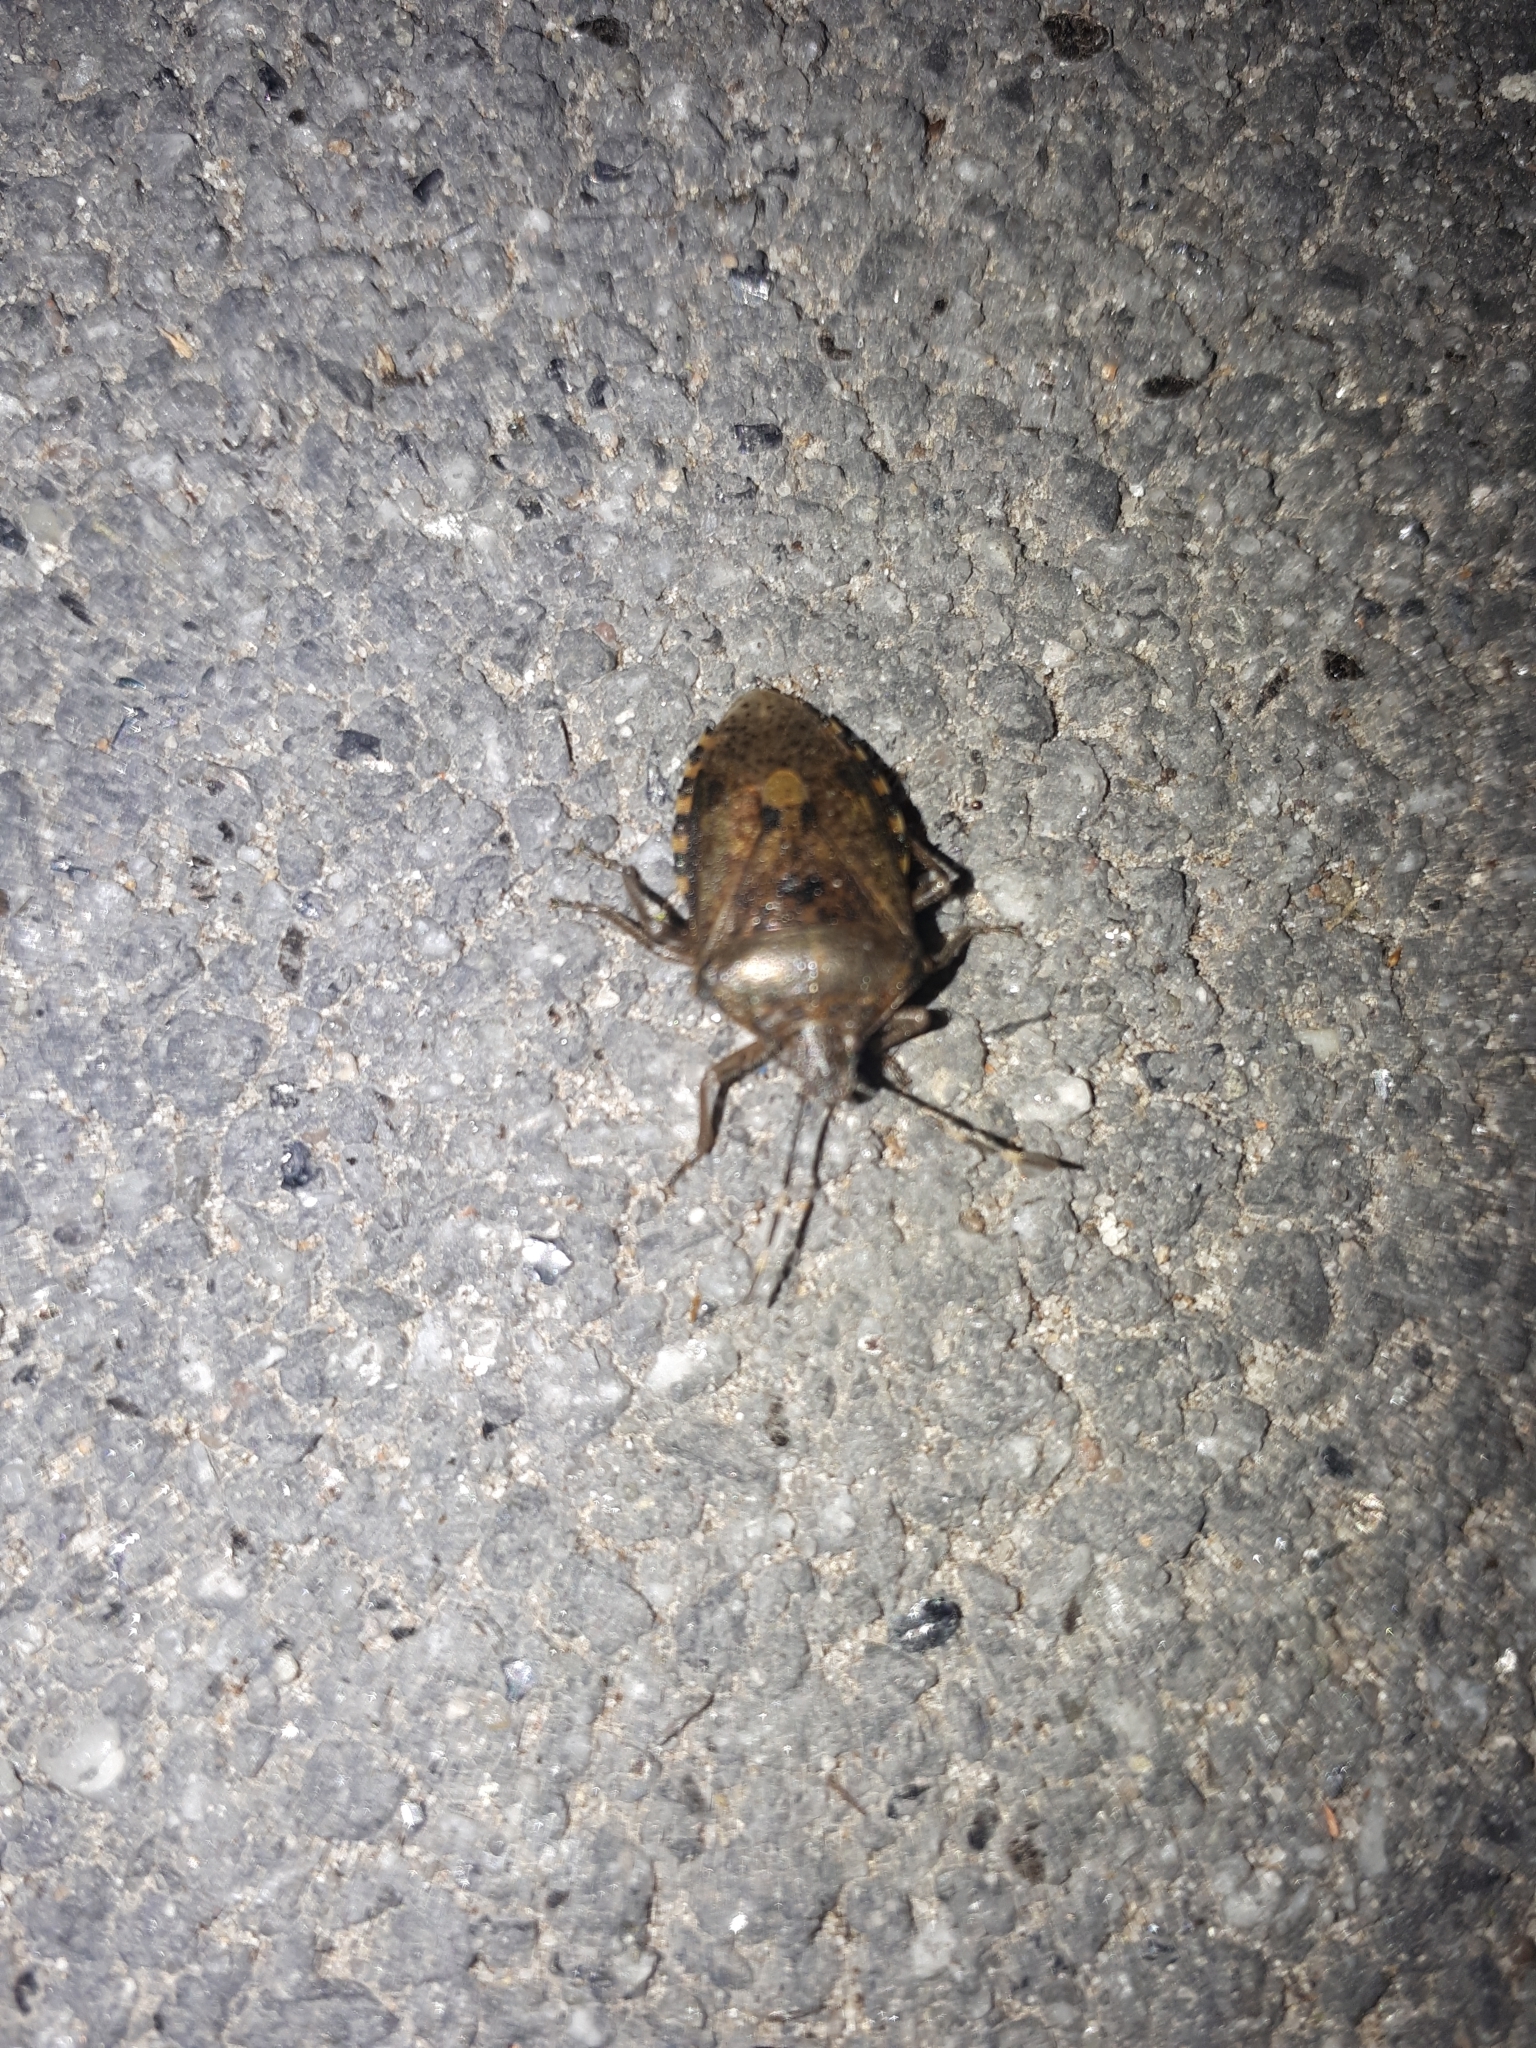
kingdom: Animalia
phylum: Arthropoda
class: Insecta
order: Hemiptera
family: Pentatomidae
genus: Rhaphigaster
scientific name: Rhaphigaster nebulosa
